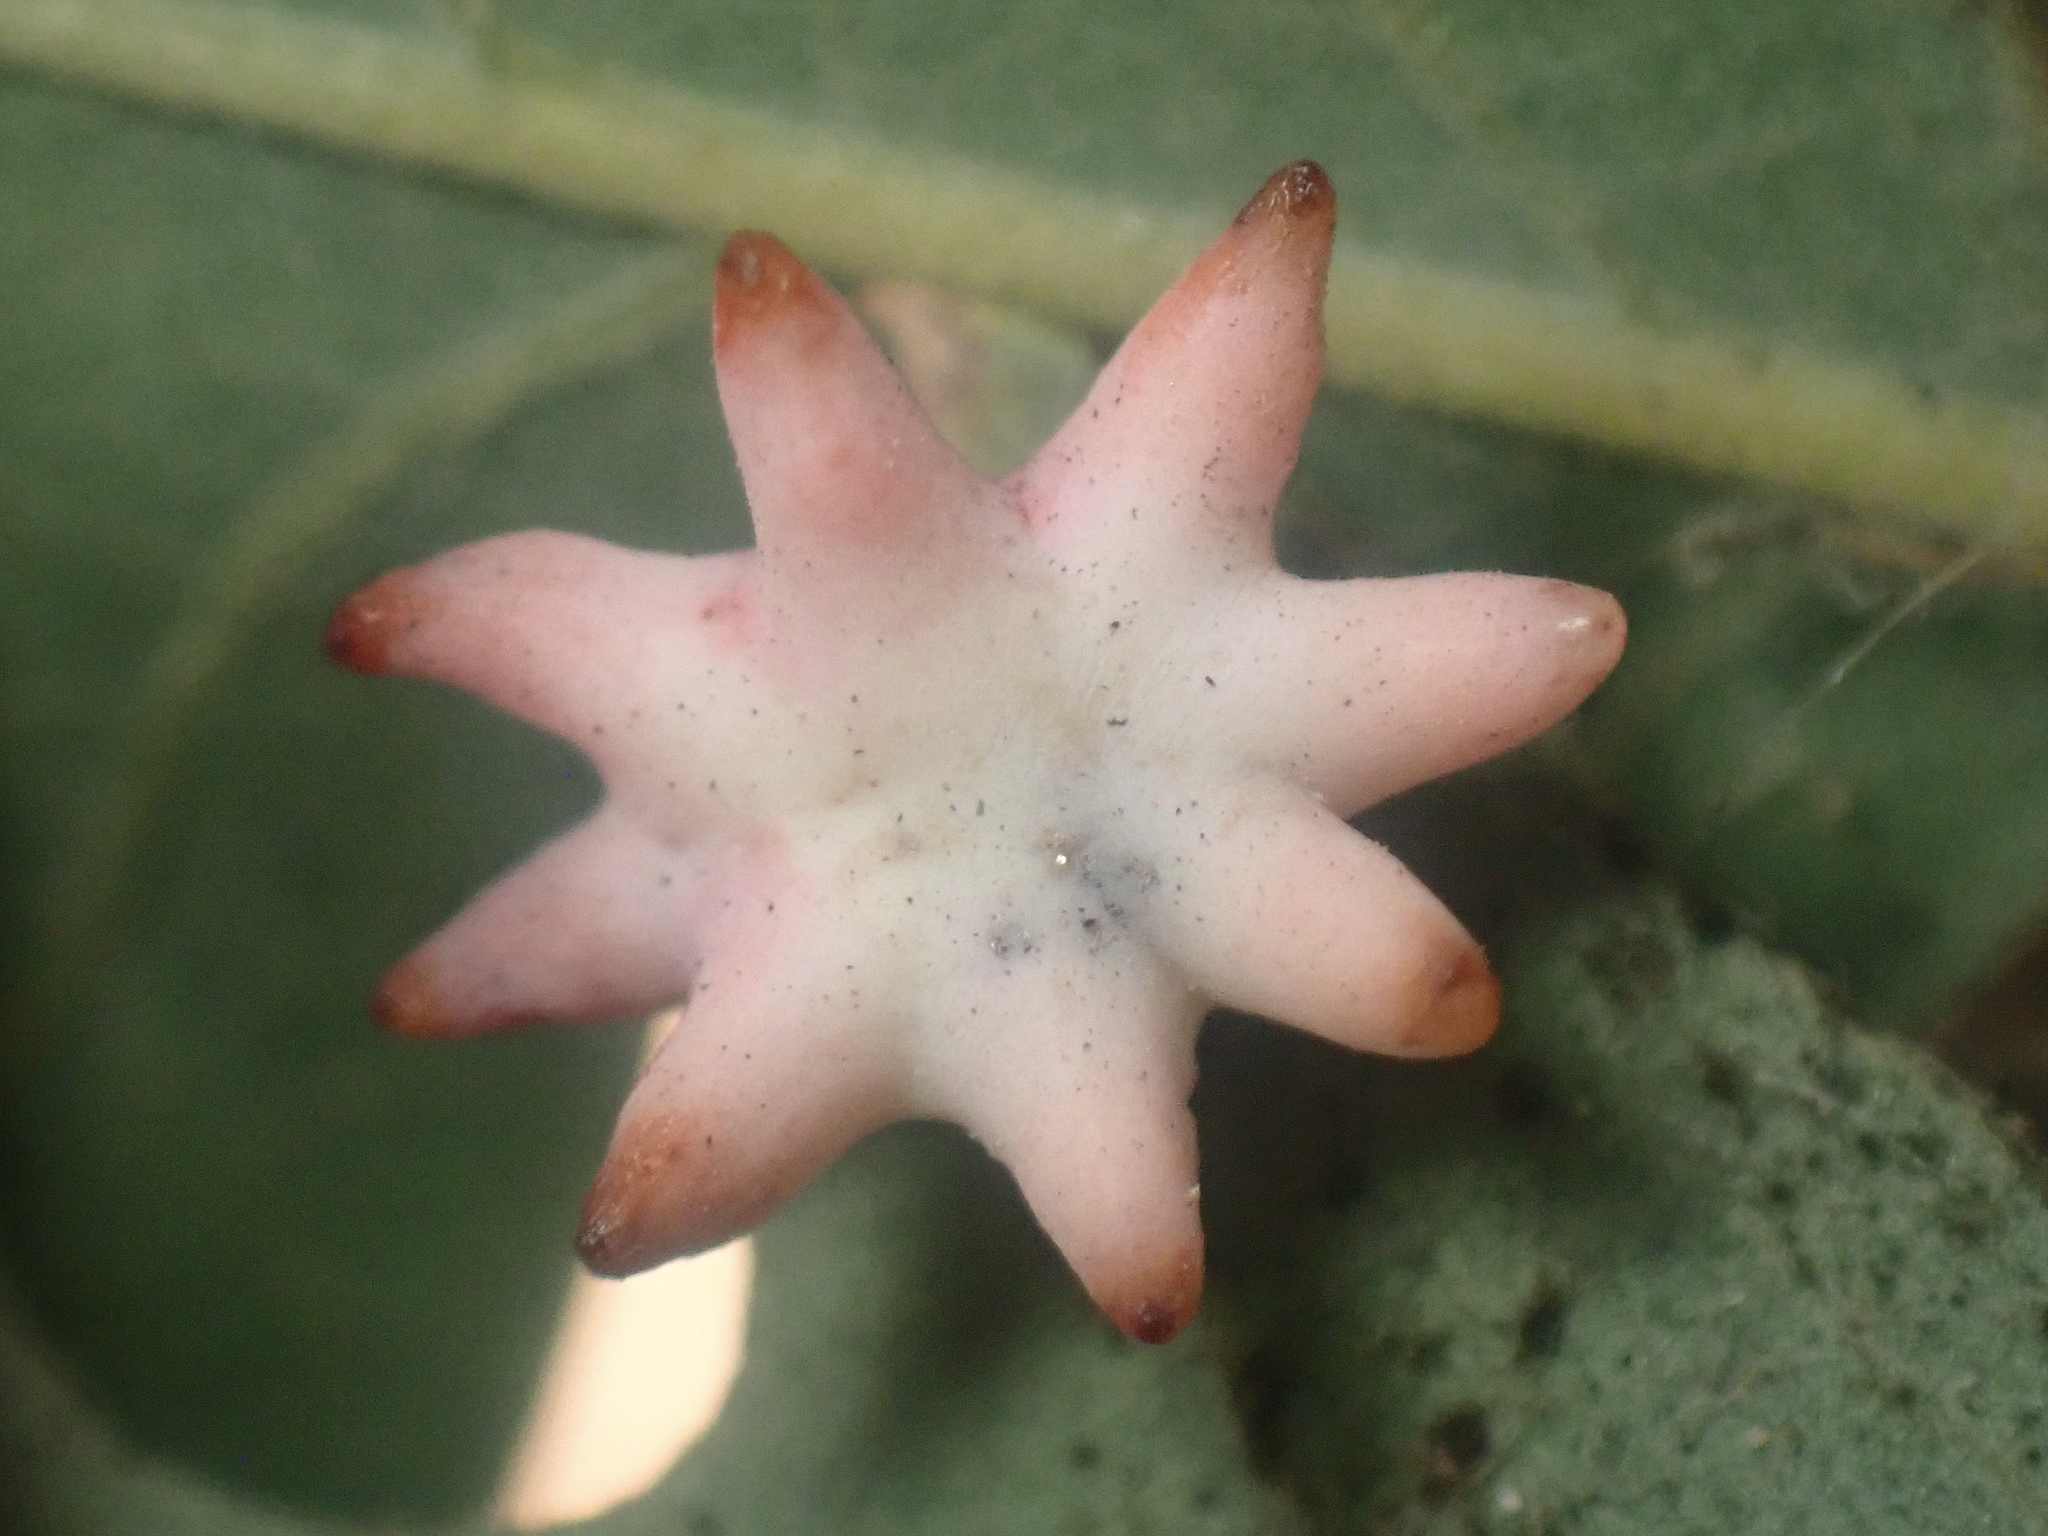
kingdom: Animalia
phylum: Arthropoda
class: Insecta
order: Hymenoptera
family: Cynipidae
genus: Cynips
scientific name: Cynips douglasi
